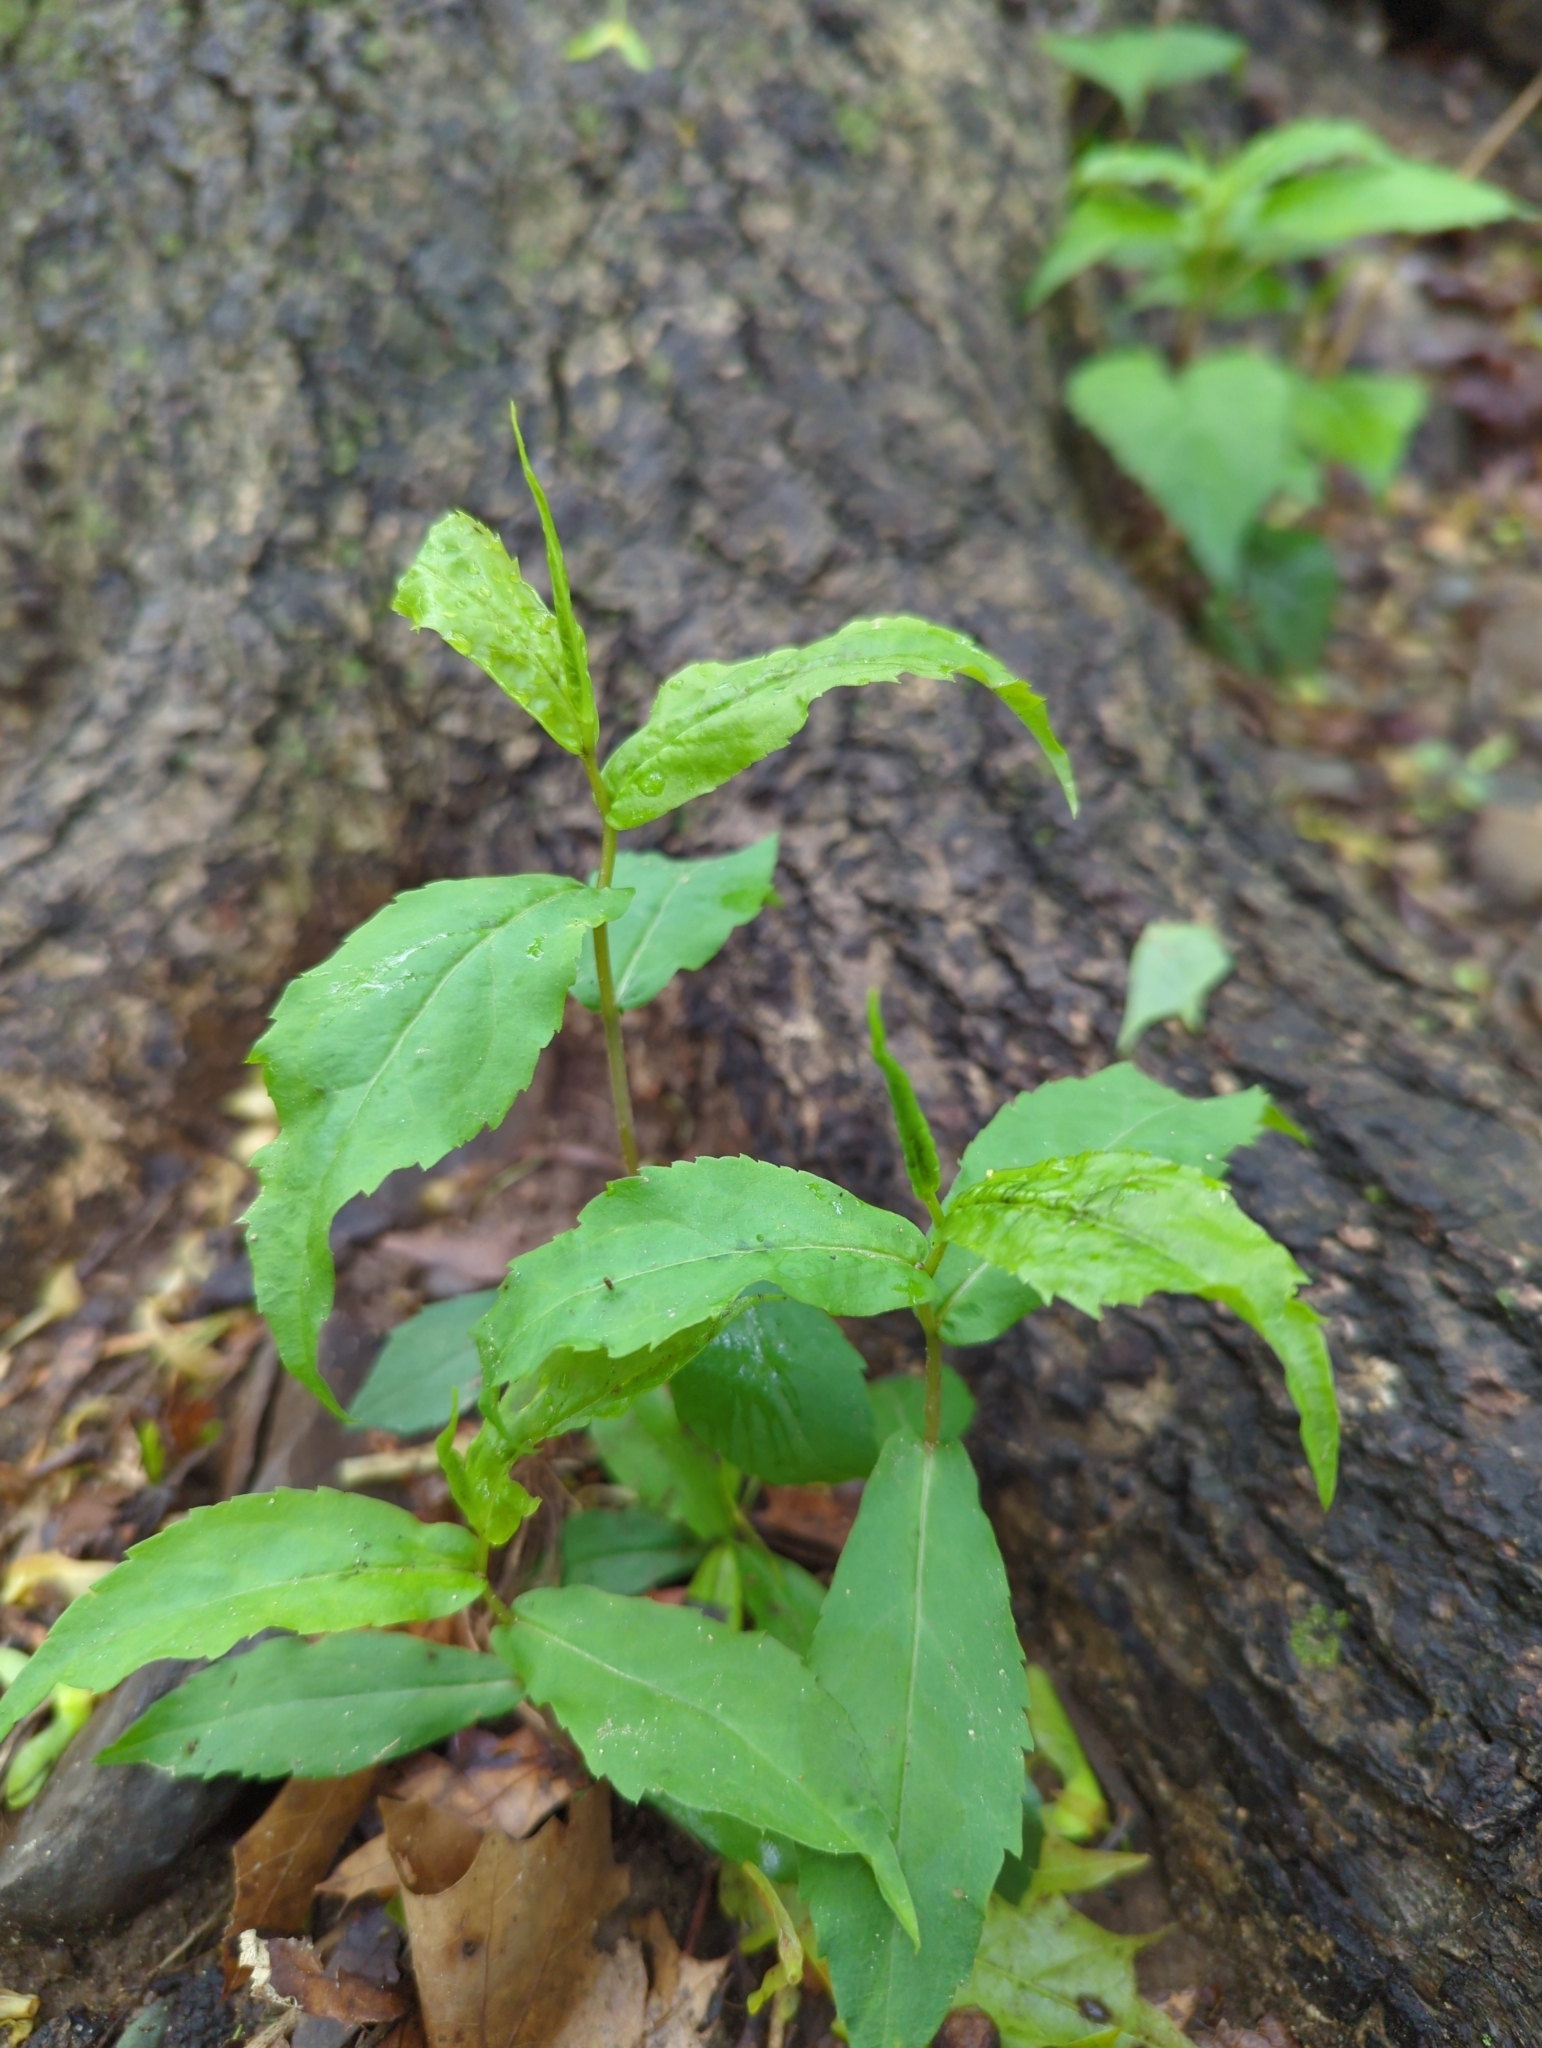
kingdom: Plantae
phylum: Tracheophyta
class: Magnoliopsida
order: Asterales
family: Asteraceae
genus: Solidago
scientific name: Solidago caesia
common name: Woodland goldenrod
